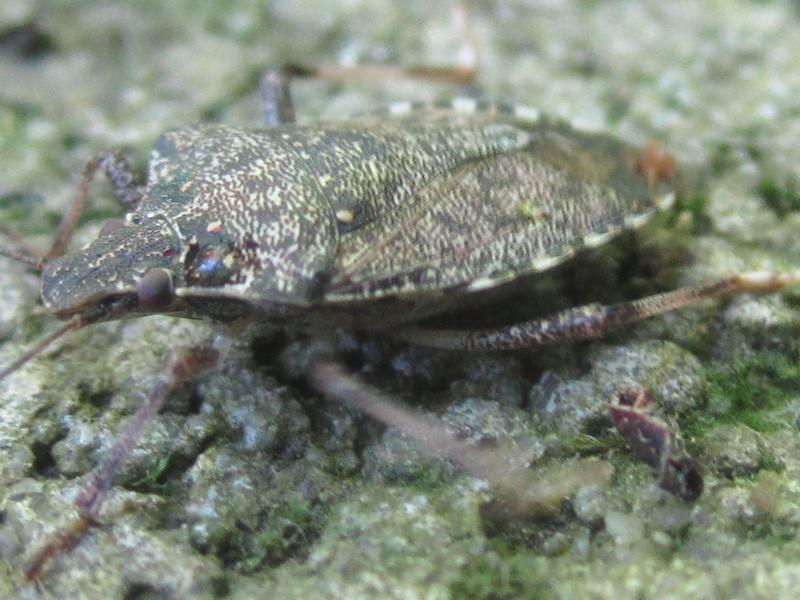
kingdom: Animalia
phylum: Arthropoda
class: Insecta
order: Hemiptera
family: Pentatomidae
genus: Halyomorpha
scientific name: Halyomorpha halys
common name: Brown marmorated stink bug
